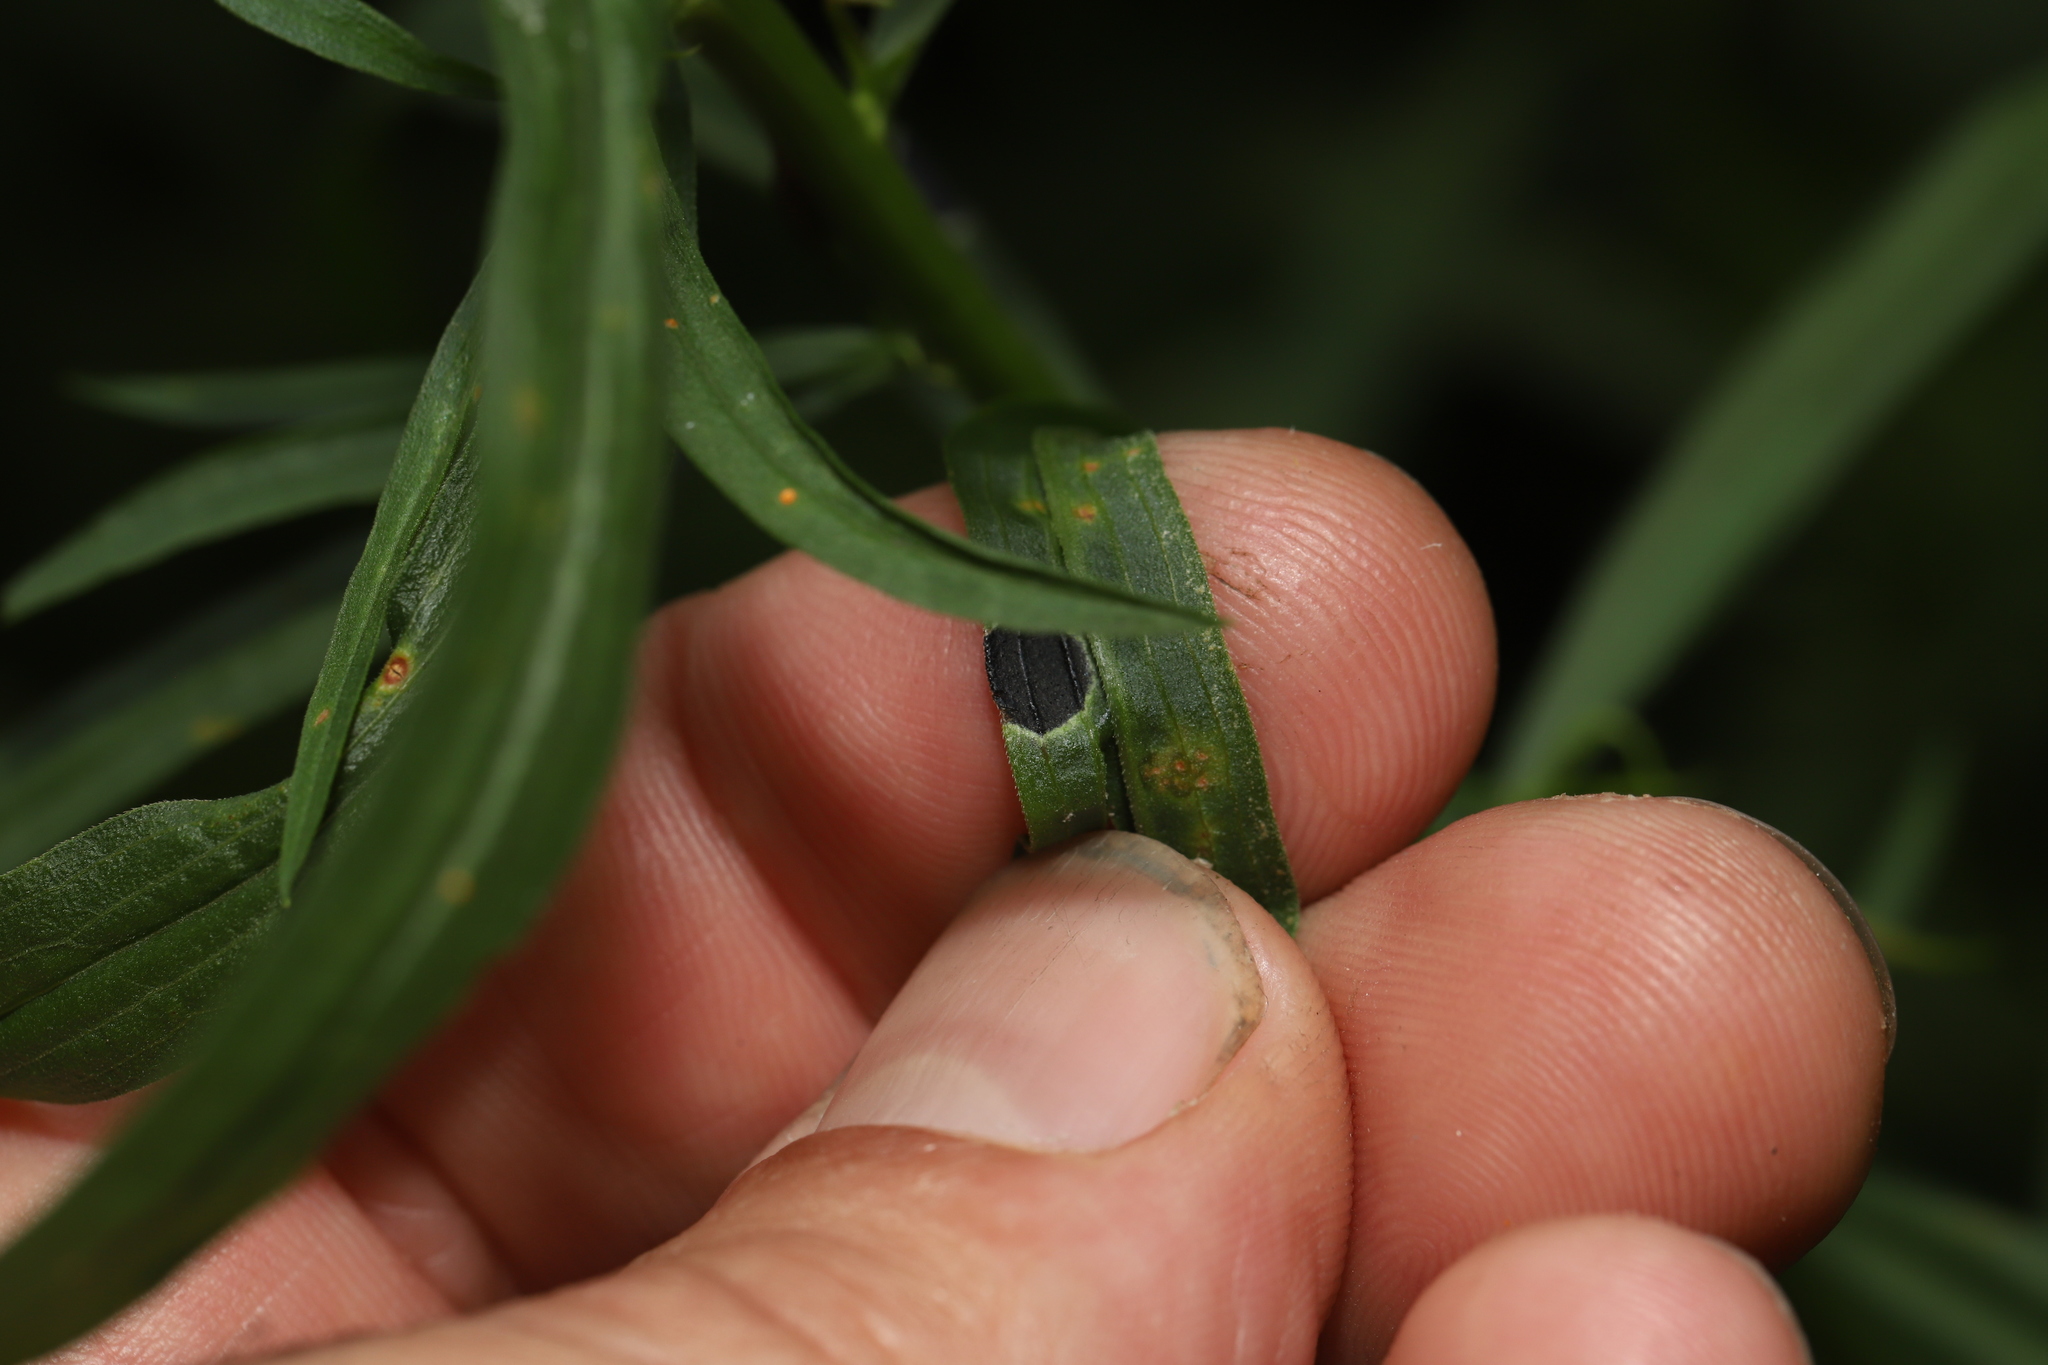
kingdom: Animalia
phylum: Arthropoda
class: Insecta
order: Diptera
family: Cecidomyiidae
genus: Asteromyia
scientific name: Asteromyia carbonifera
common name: Carbonifera goldenrod gall midge
